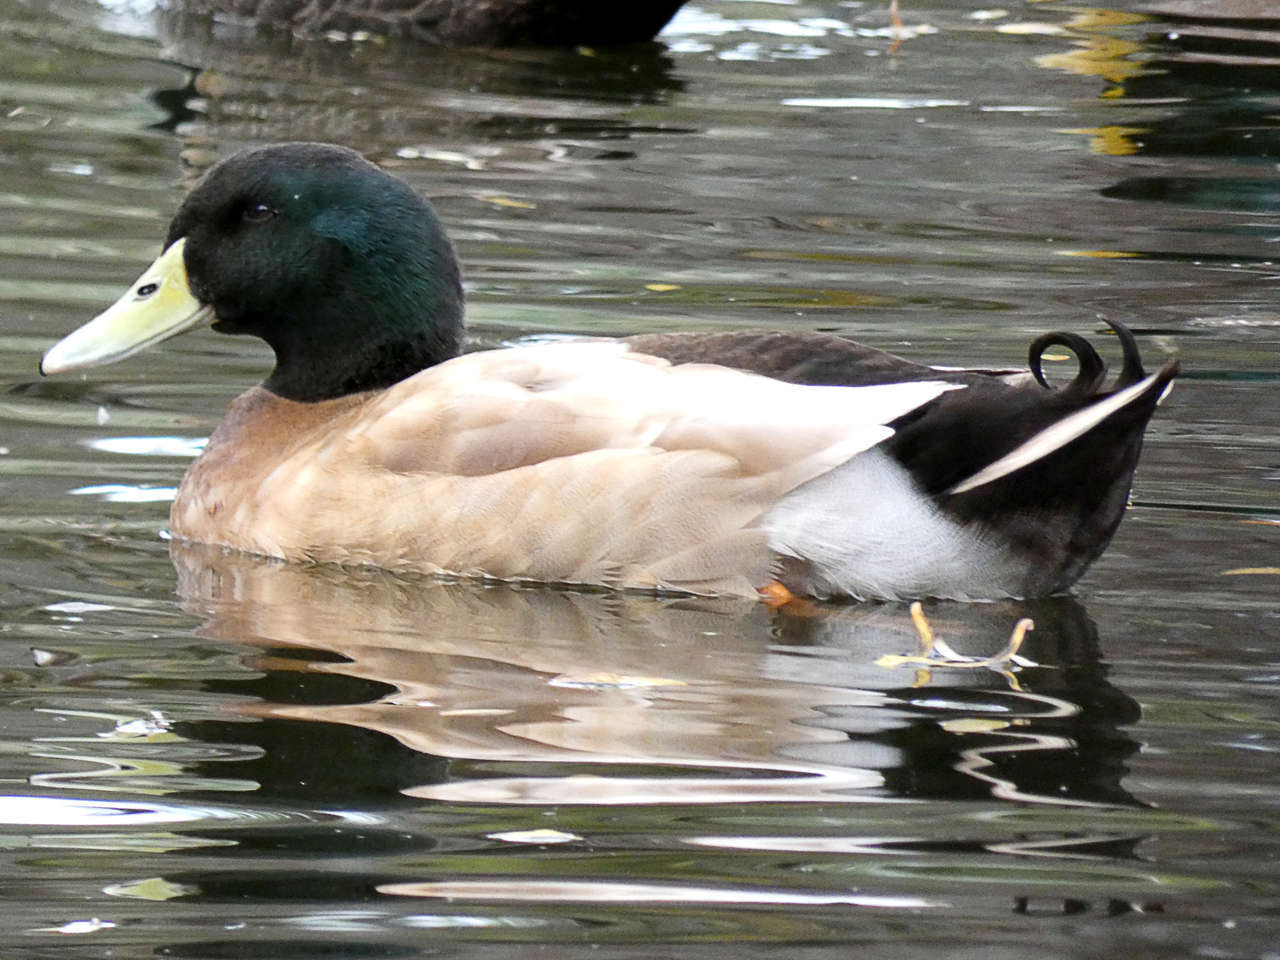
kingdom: Animalia
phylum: Chordata
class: Aves
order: Anseriformes
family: Anatidae
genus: Anas
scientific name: Anas platyrhynchos
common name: Mallard
